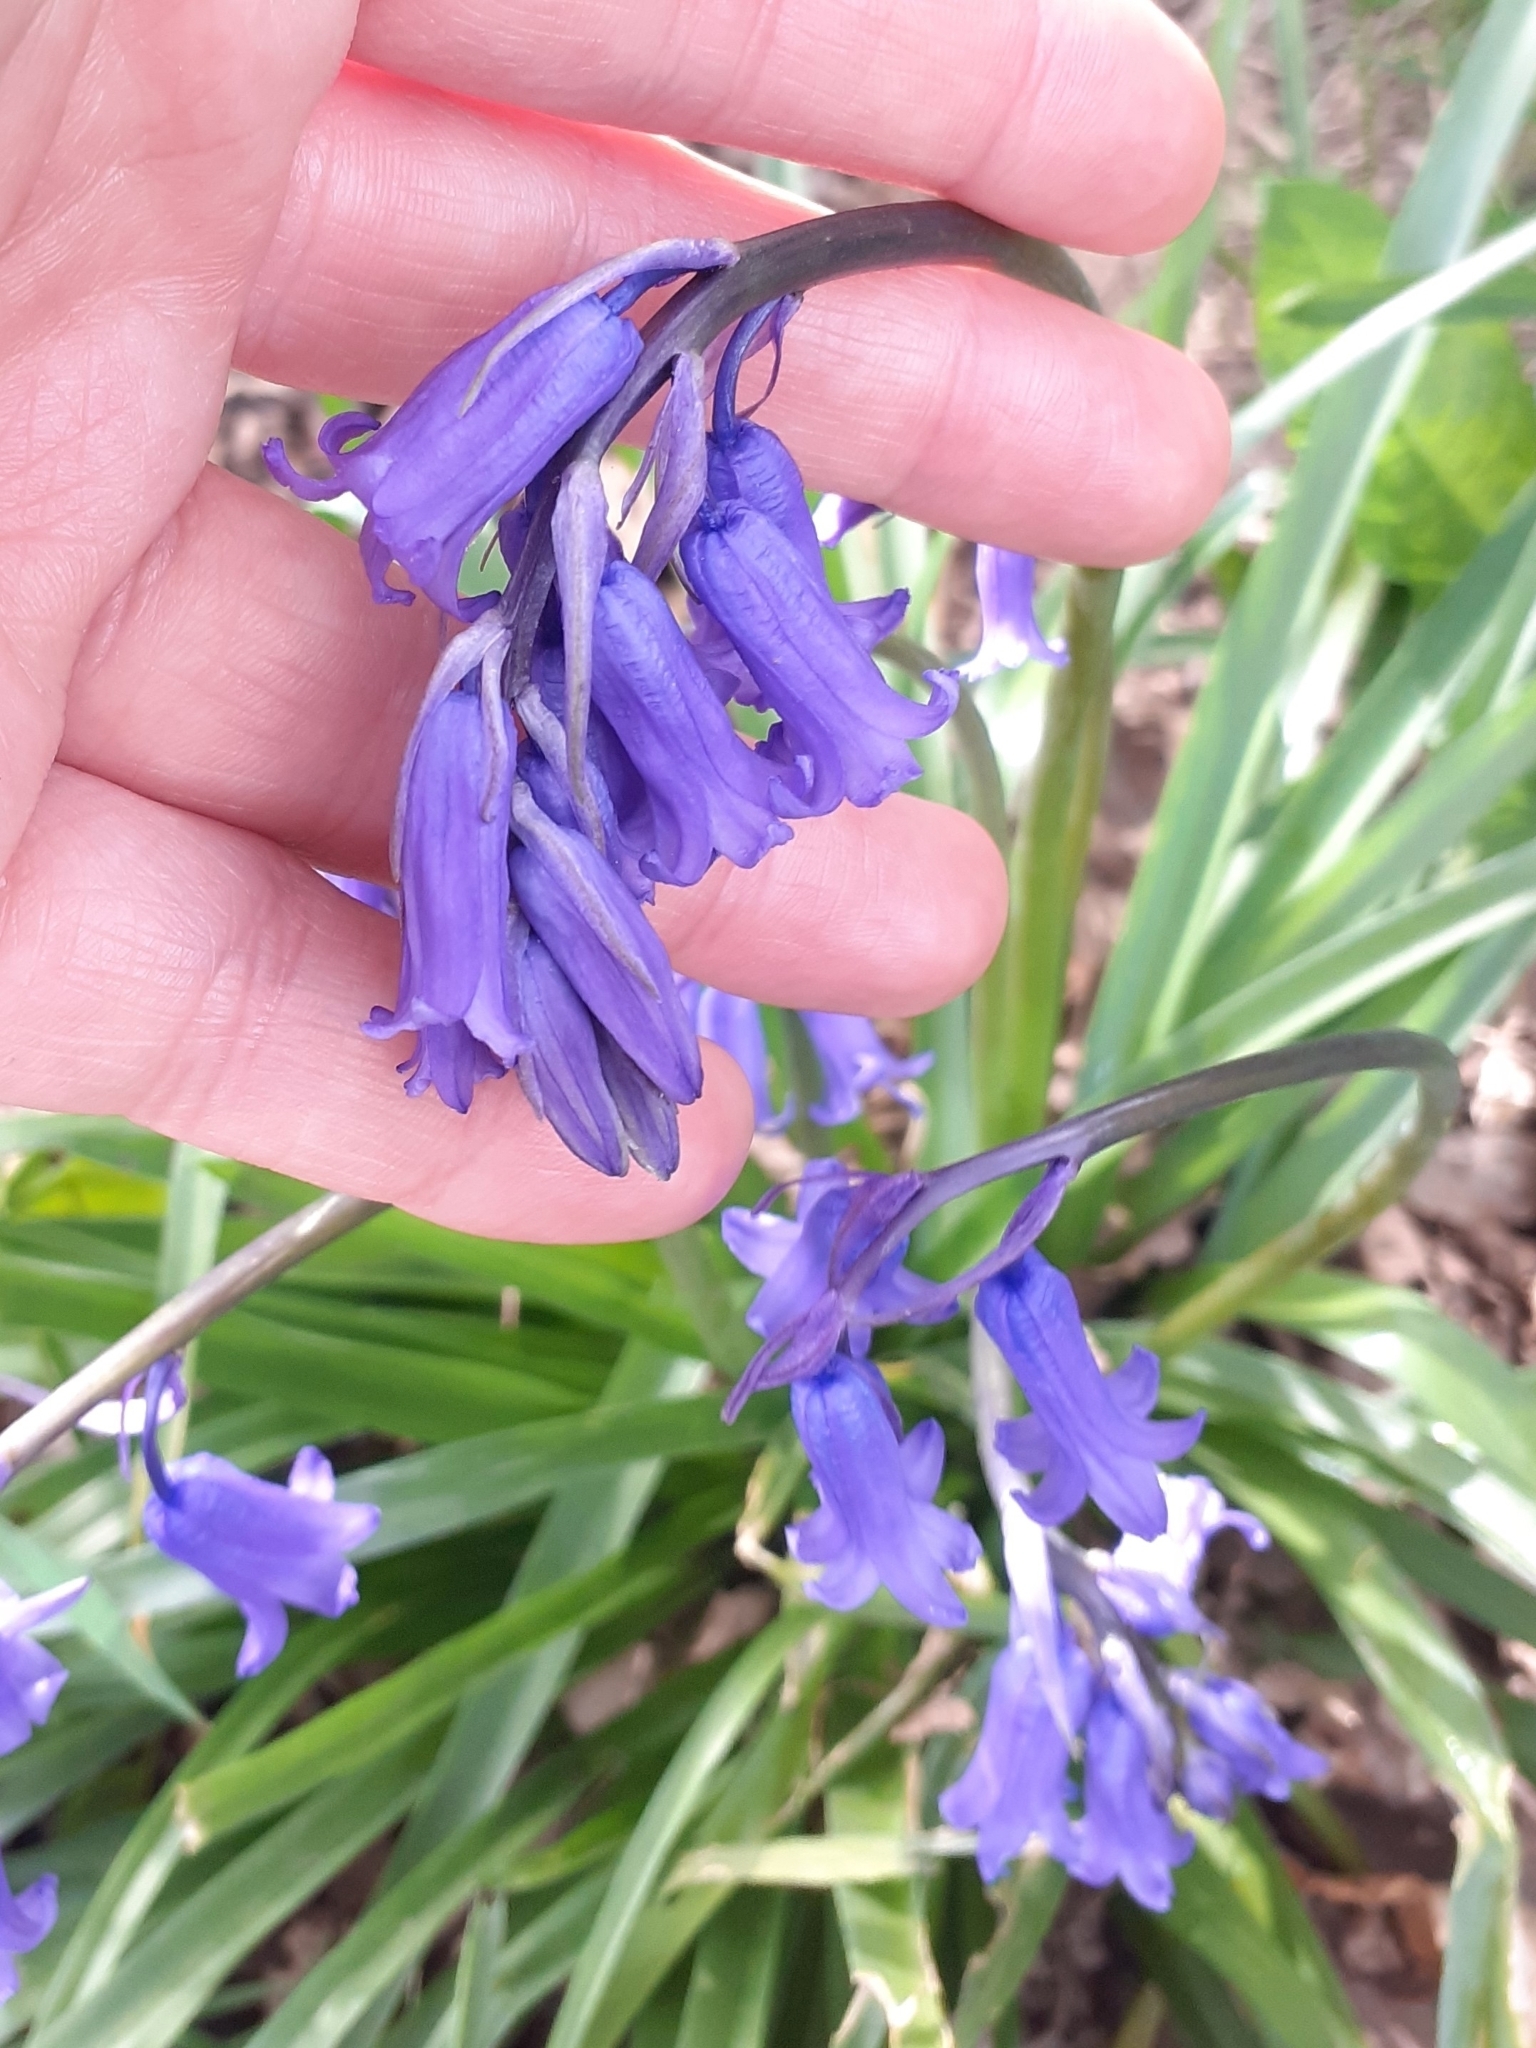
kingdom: Plantae
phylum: Tracheophyta
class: Liliopsida
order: Asparagales
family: Asparagaceae
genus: Hyacinthoides
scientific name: Hyacinthoides non-scripta
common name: Bluebell
